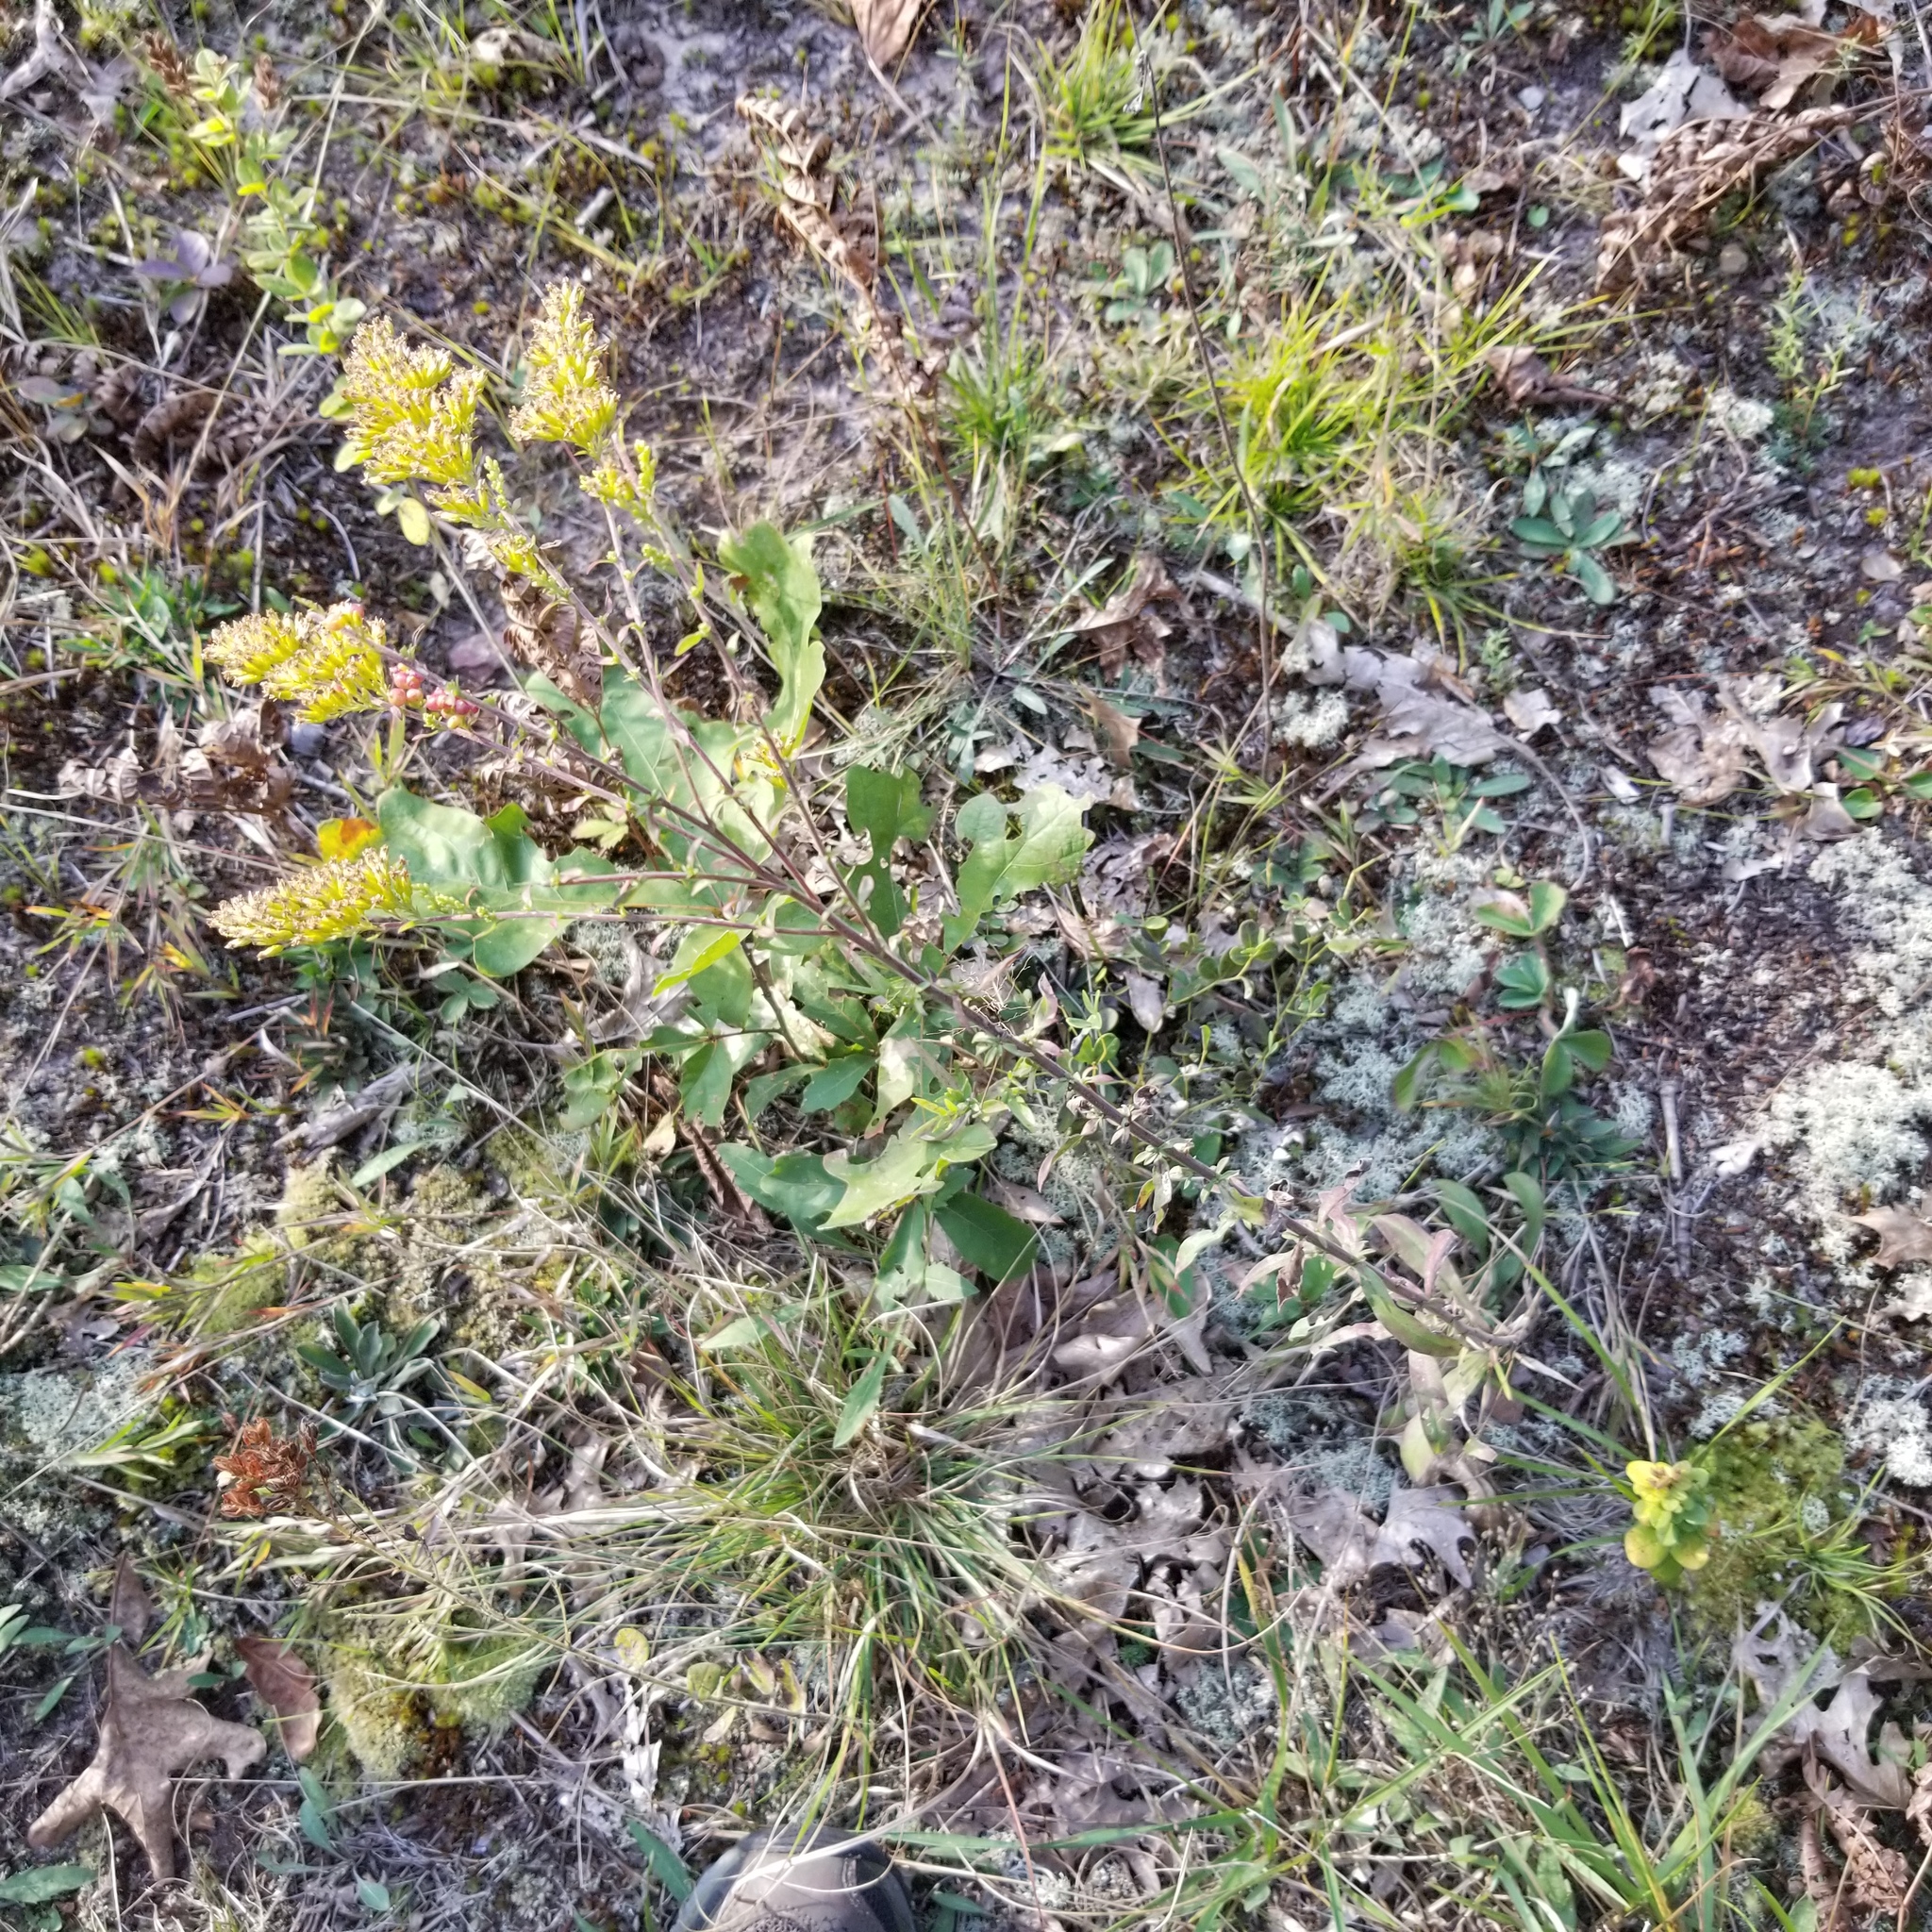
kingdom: Plantae
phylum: Tracheophyta
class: Magnoliopsida
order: Asterales
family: Asteraceae
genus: Solidago
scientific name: Solidago nemoralis
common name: Grey goldenrod
